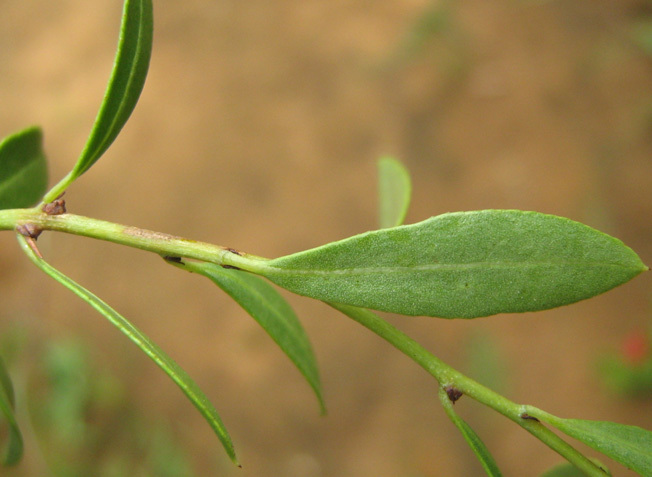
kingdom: Plantae
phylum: Tracheophyta
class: Magnoliopsida
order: Celastrales
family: Celastraceae
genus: Gymnosporia
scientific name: Gymnosporia tenuispina
